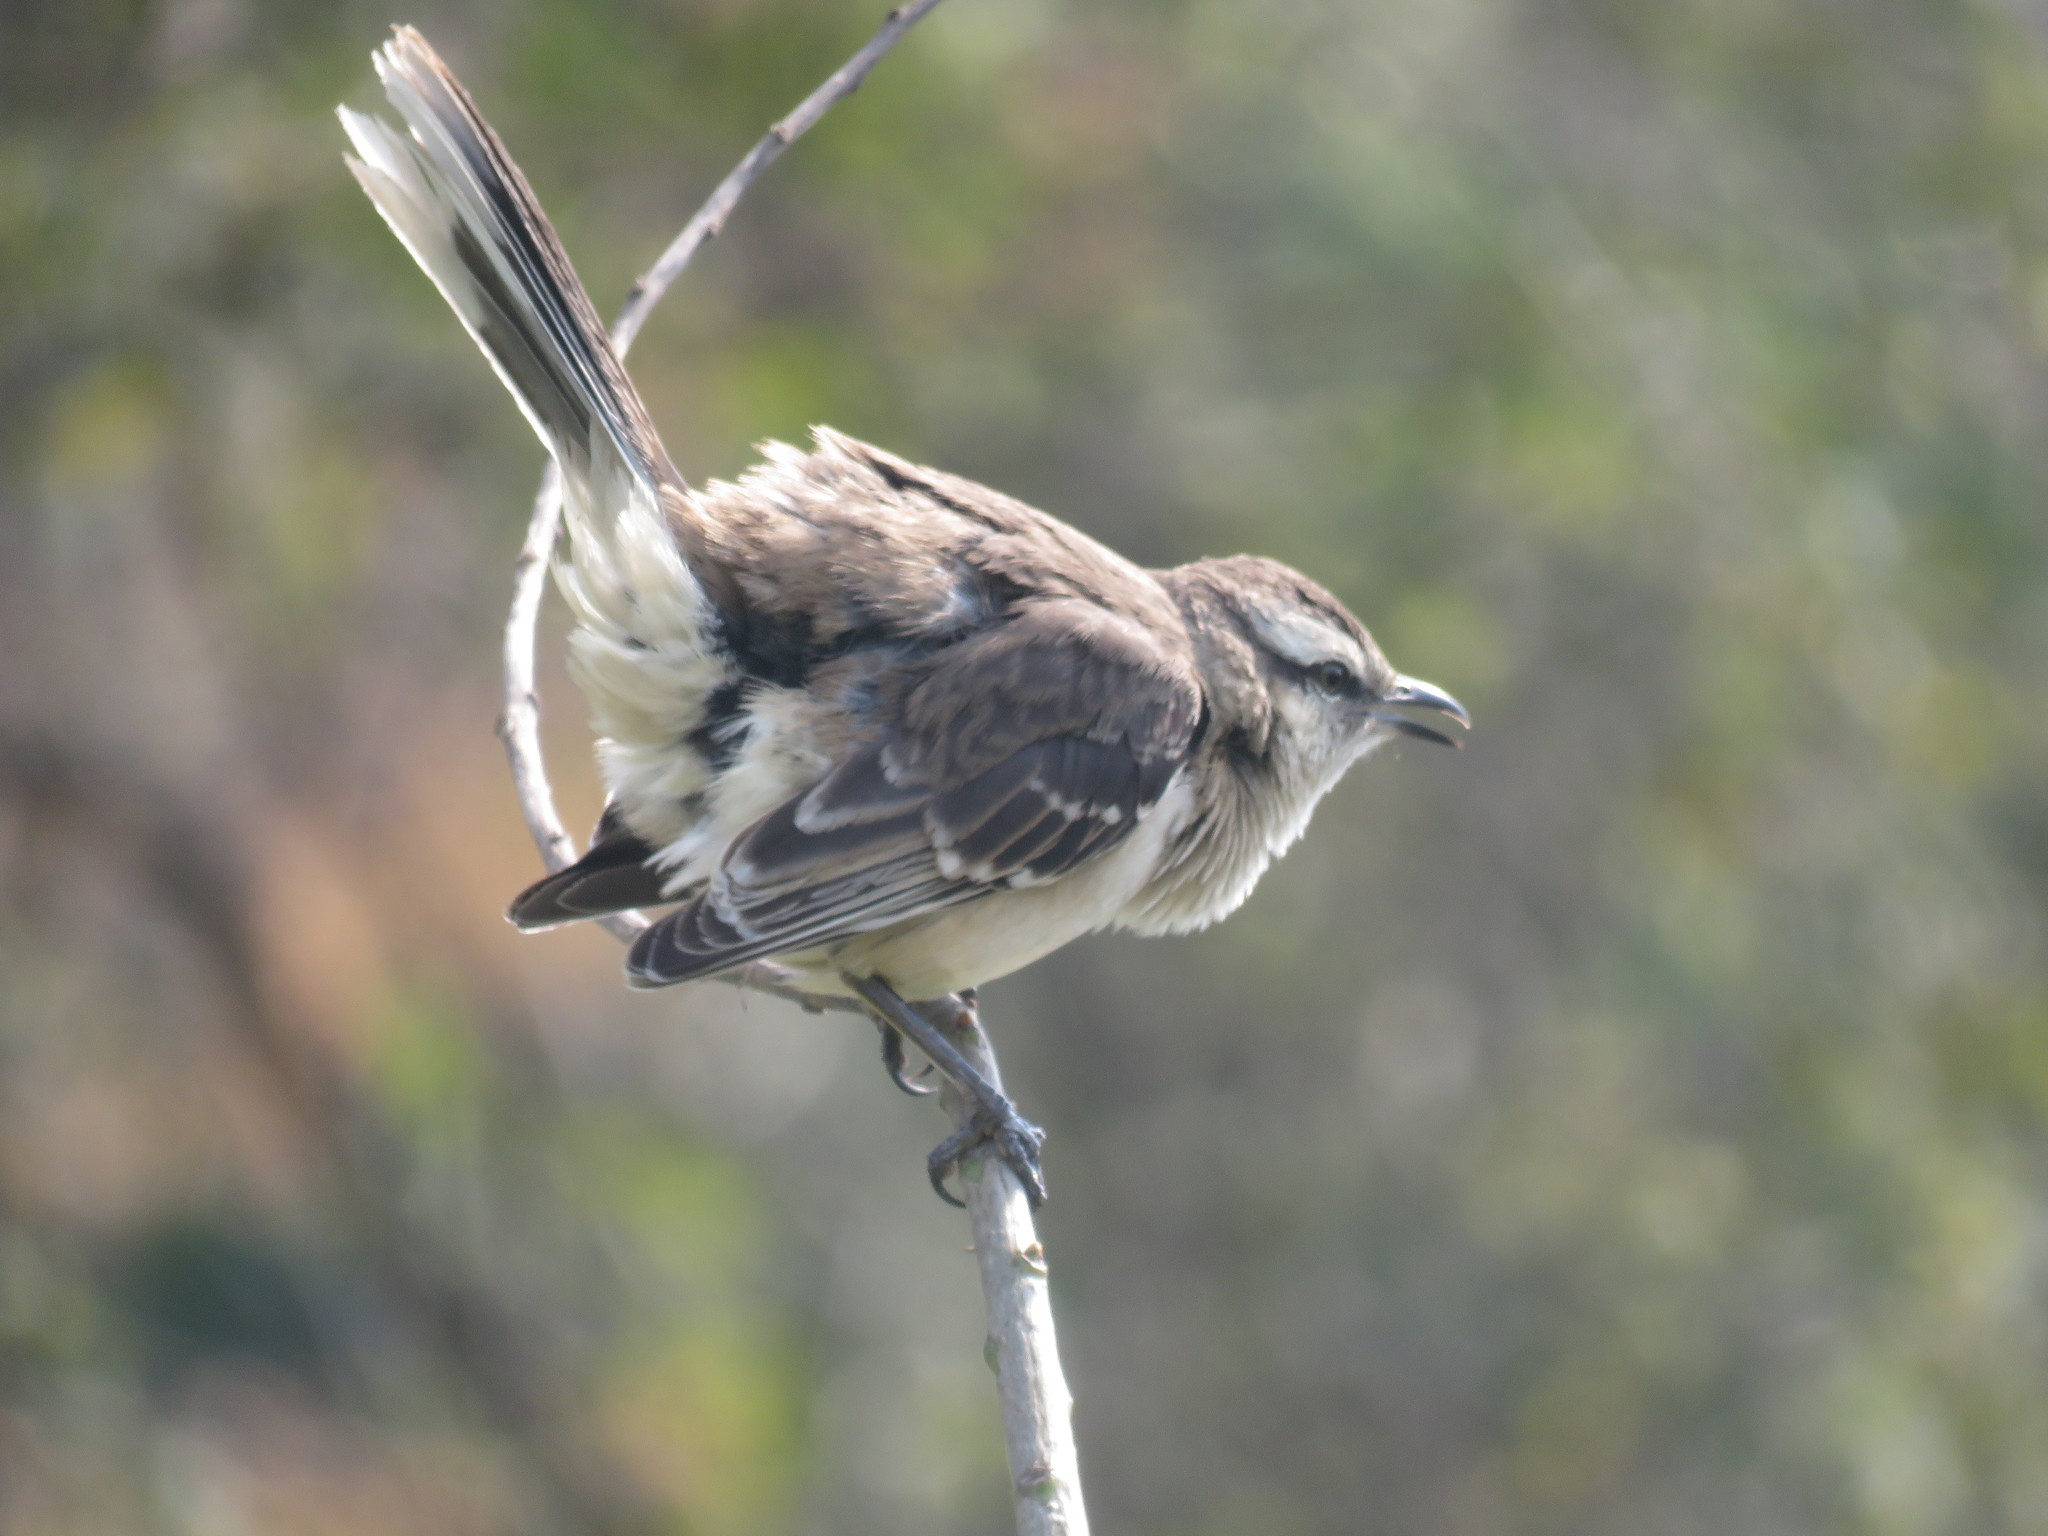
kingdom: Animalia
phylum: Chordata
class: Aves
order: Passeriformes
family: Mimidae
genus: Mimus
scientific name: Mimus saturninus
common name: Chalk-browed mockingbird
